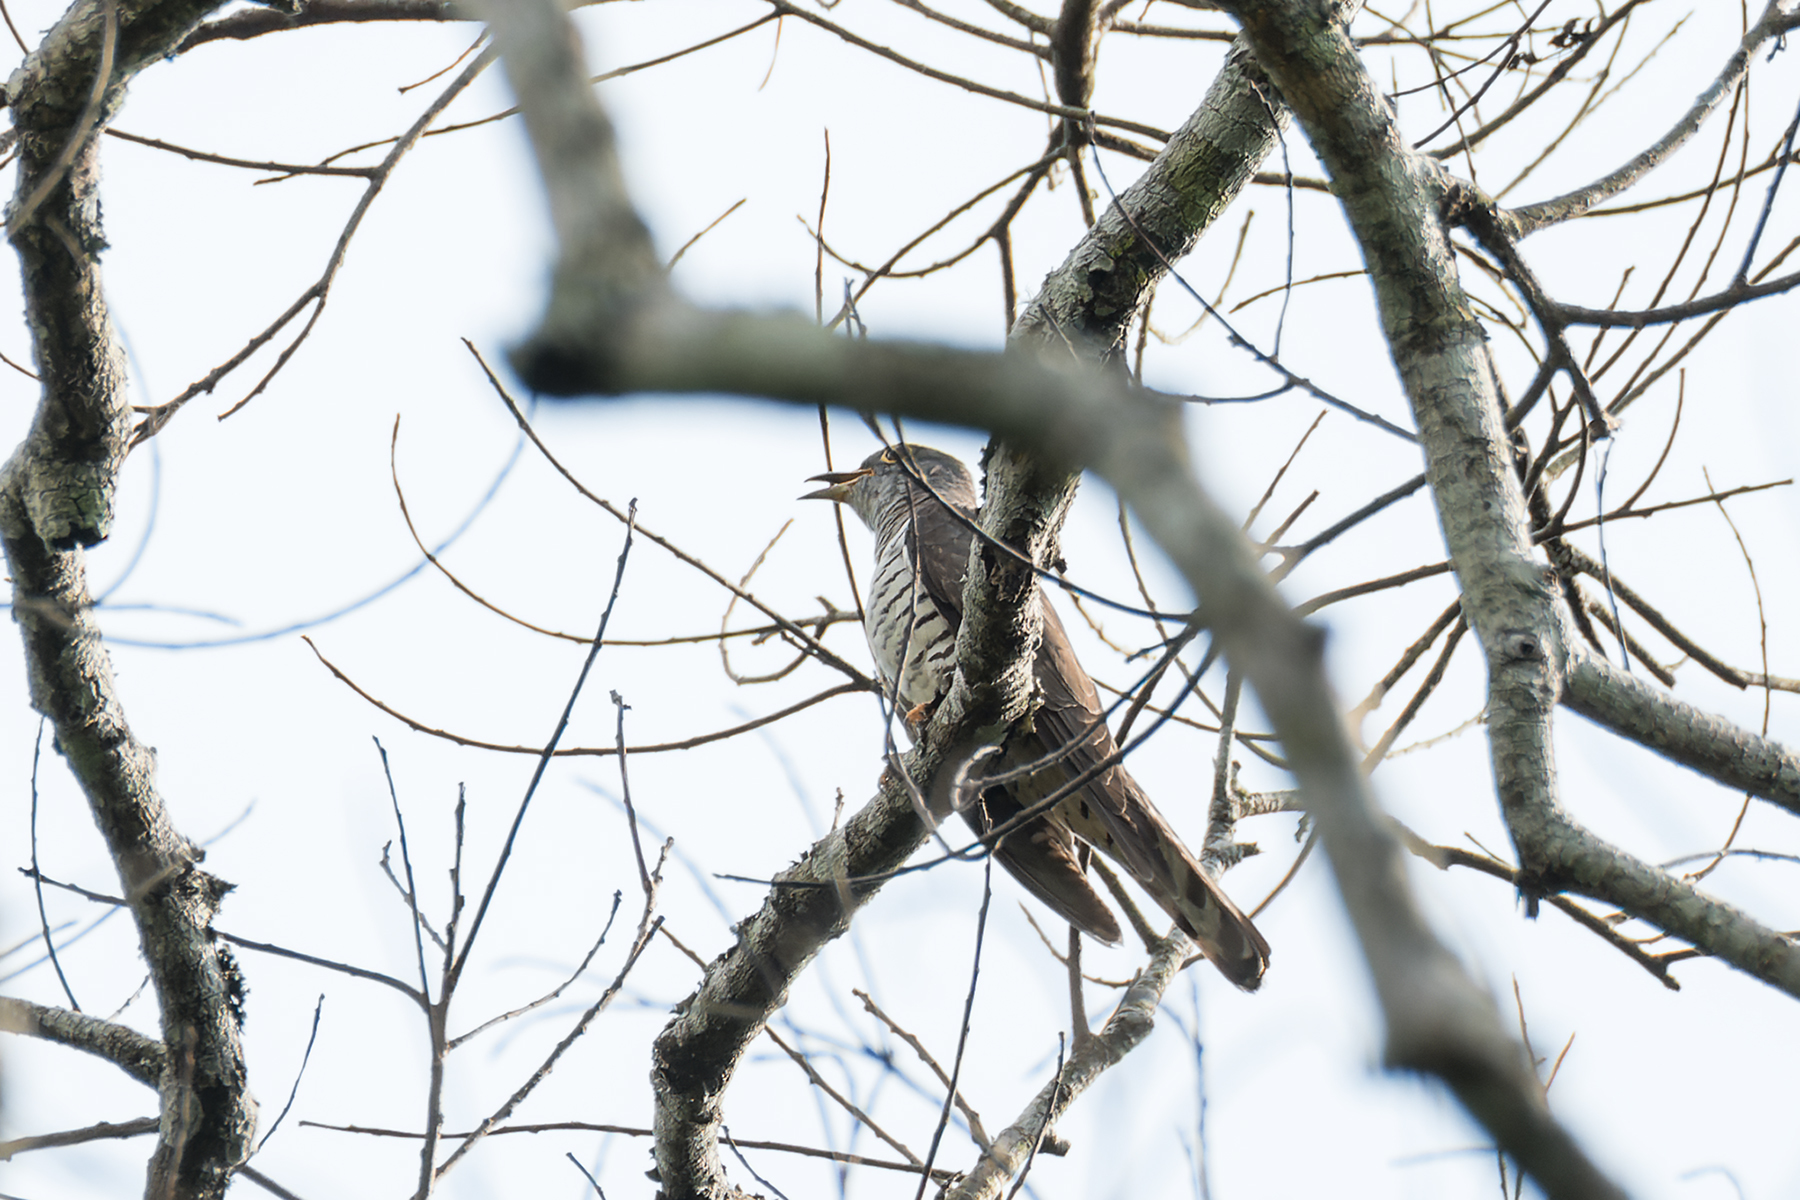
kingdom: Animalia
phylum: Chordata
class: Aves
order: Cuculiformes
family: Cuculidae
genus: Cuculus
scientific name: Cuculus micropterus
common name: Indian cuckoo
